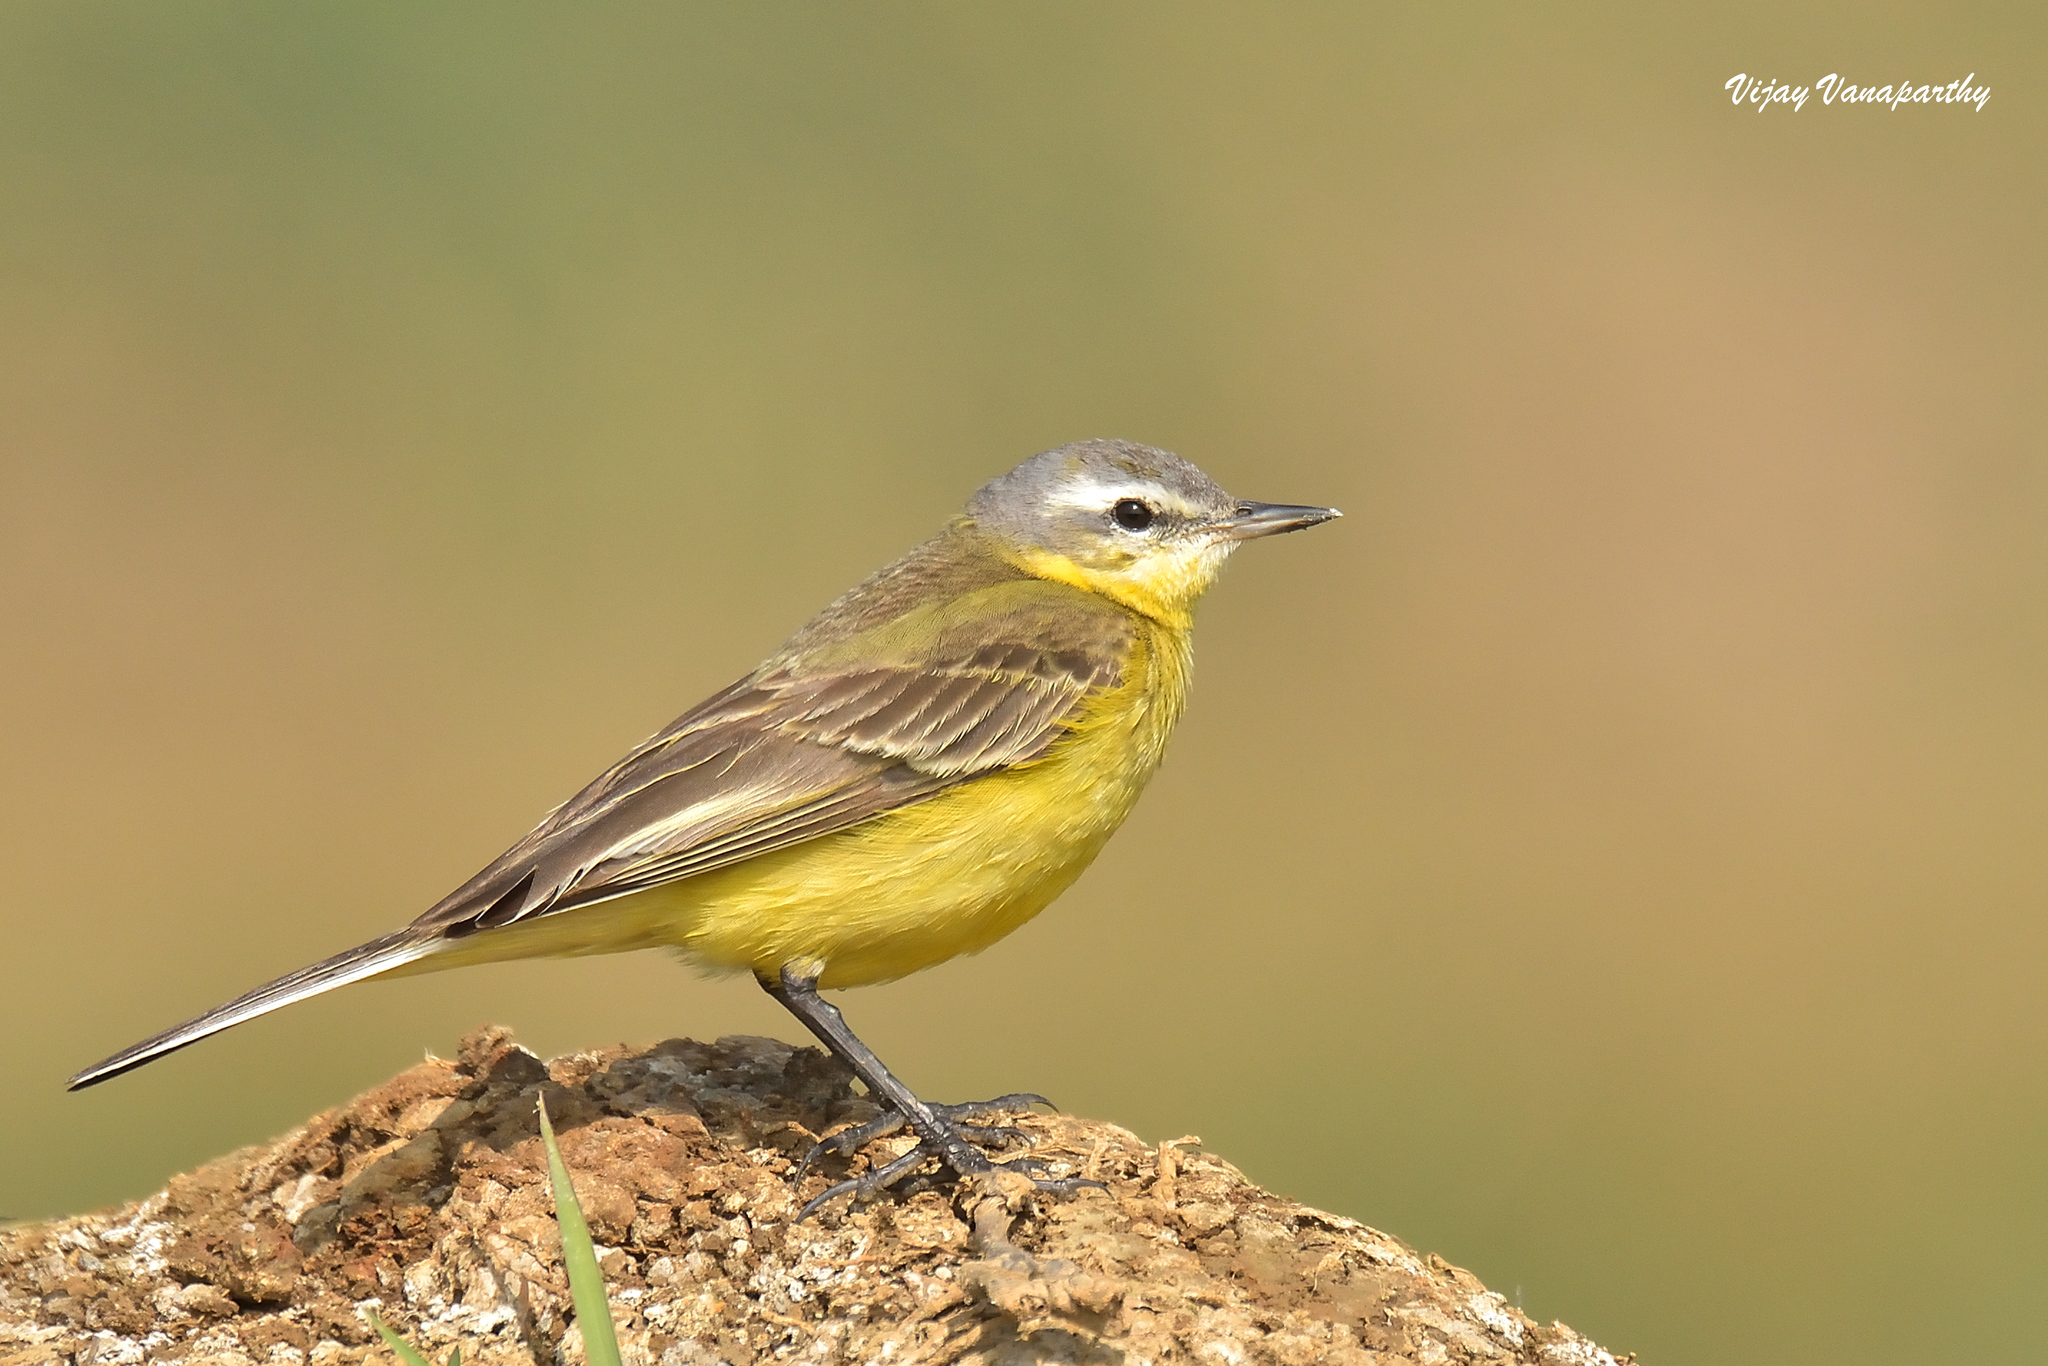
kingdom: Animalia
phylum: Chordata
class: Aves
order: Passeriformes
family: Motacillidae
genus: Motacilla
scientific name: Motacilla flava
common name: Western yellow wagtail
